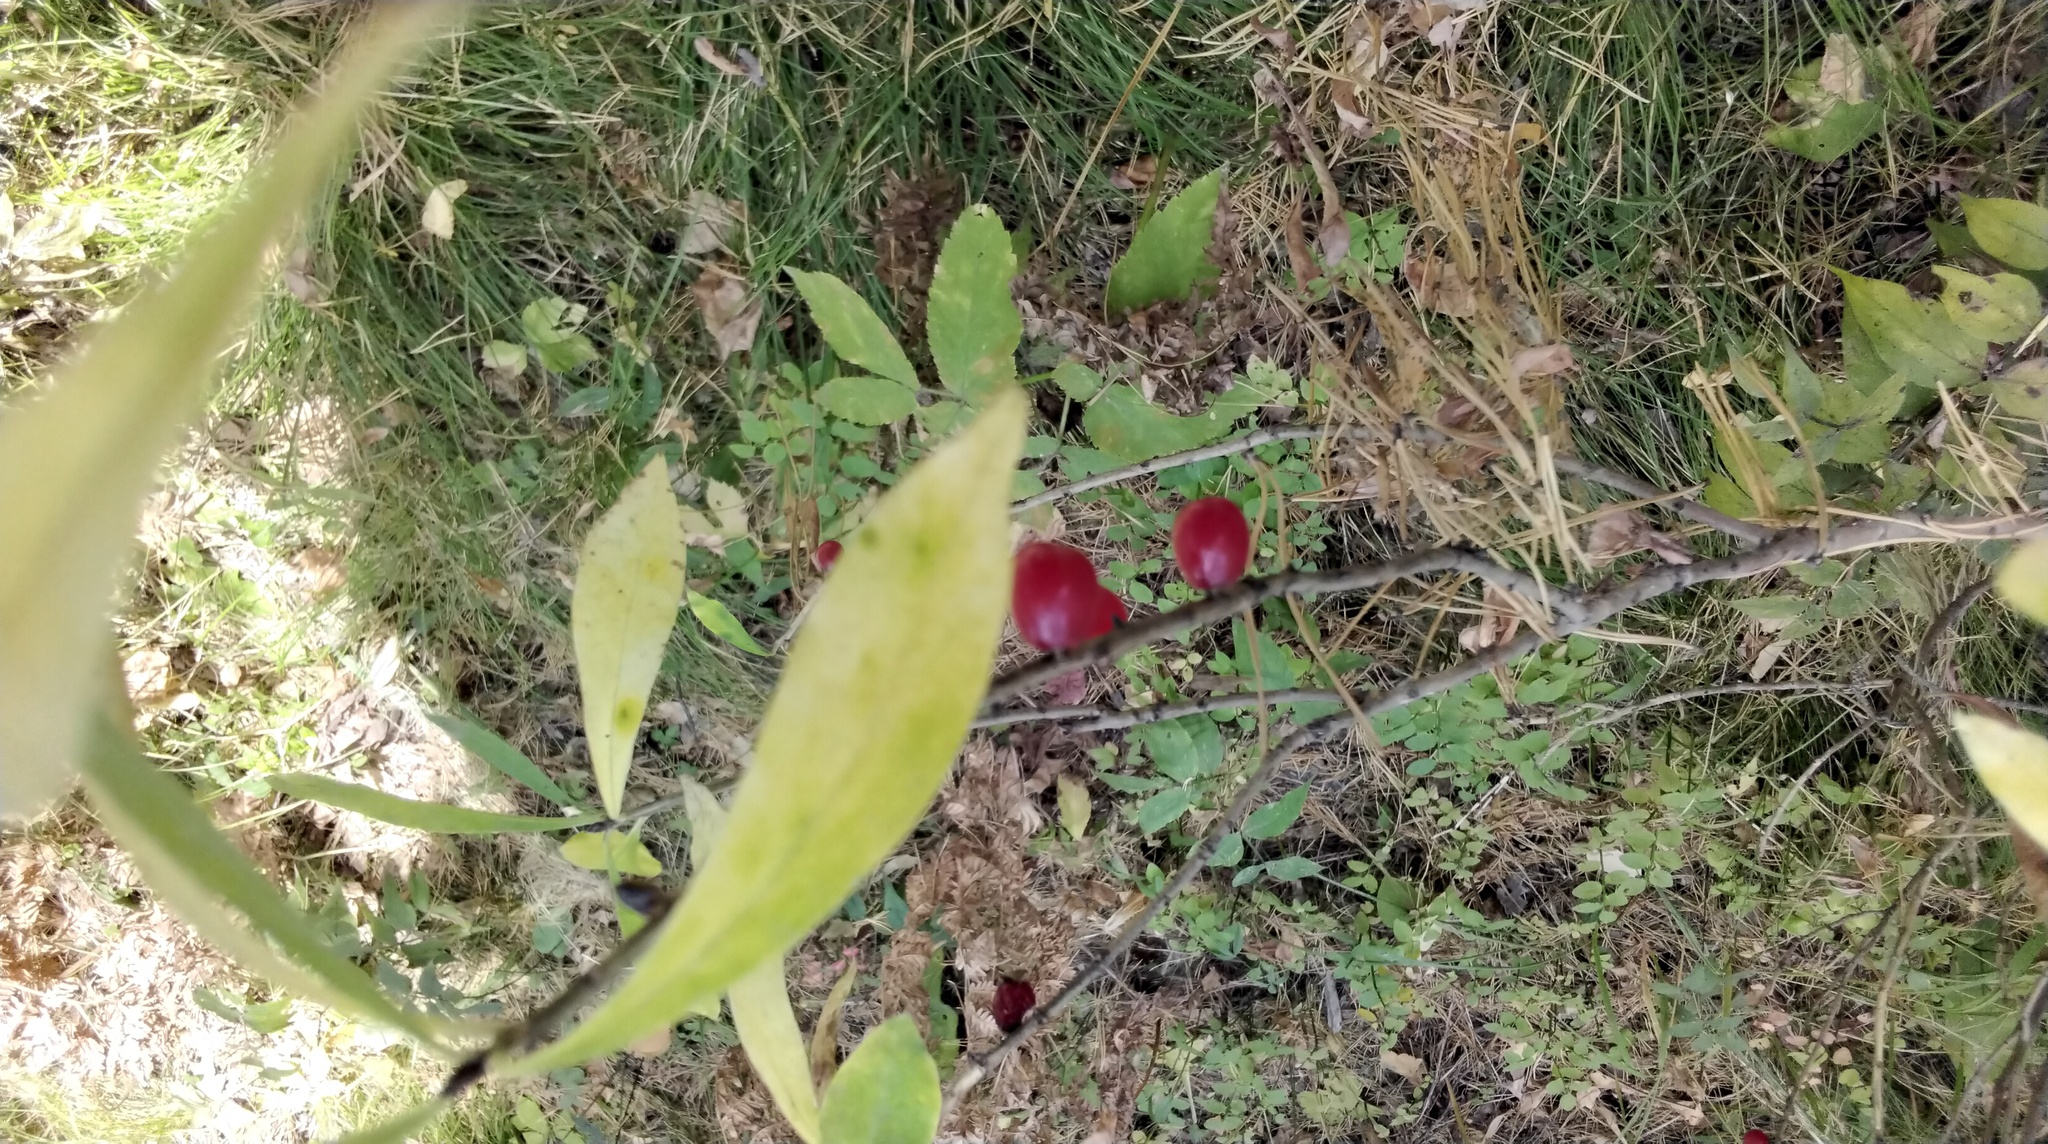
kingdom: Plantae
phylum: Tracheophyta
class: Magnoliopsida
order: Malvales
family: Thymelaeaceae
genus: Daphne
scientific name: Daphne mezereum
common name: Mezereon
